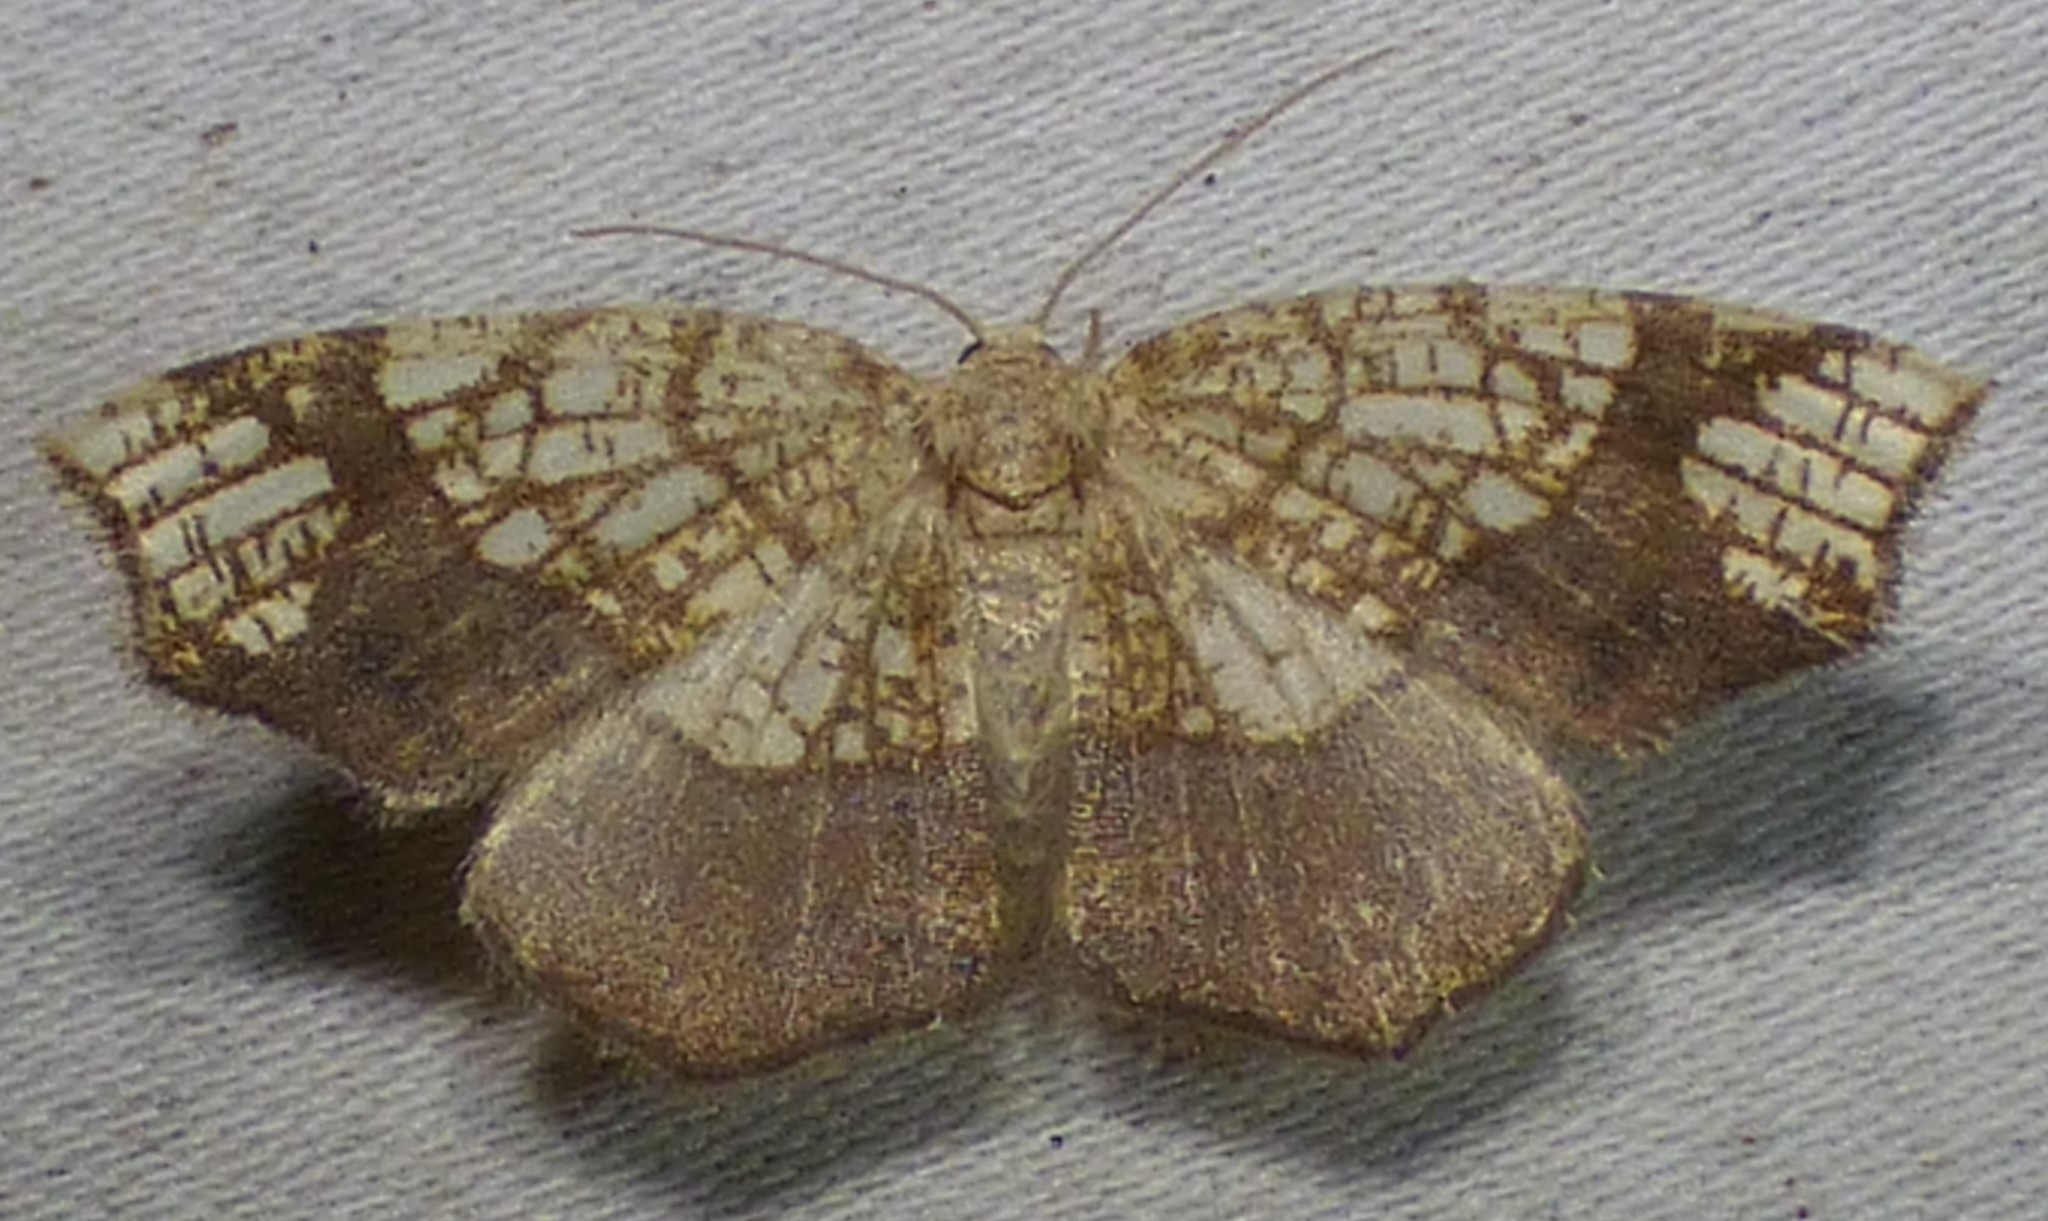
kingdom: Animalia
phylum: Arthropoda
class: Insecta
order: Lepidoptera
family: Geometridae
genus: Nematocampa
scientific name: Nematocampa resistaria
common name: Horned spanworm moth
